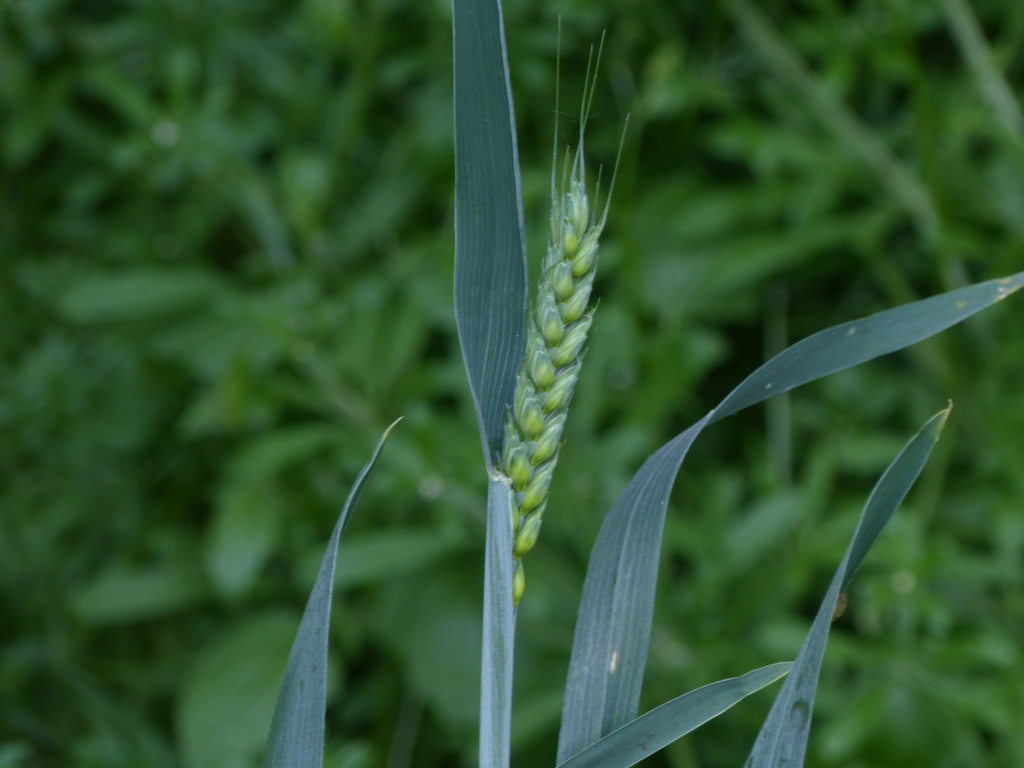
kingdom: Plantae
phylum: Tracheophyta
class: Liliopsida
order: Poales
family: Poaceae
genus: Triticum
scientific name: Triticum aestivum
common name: Common wheat
